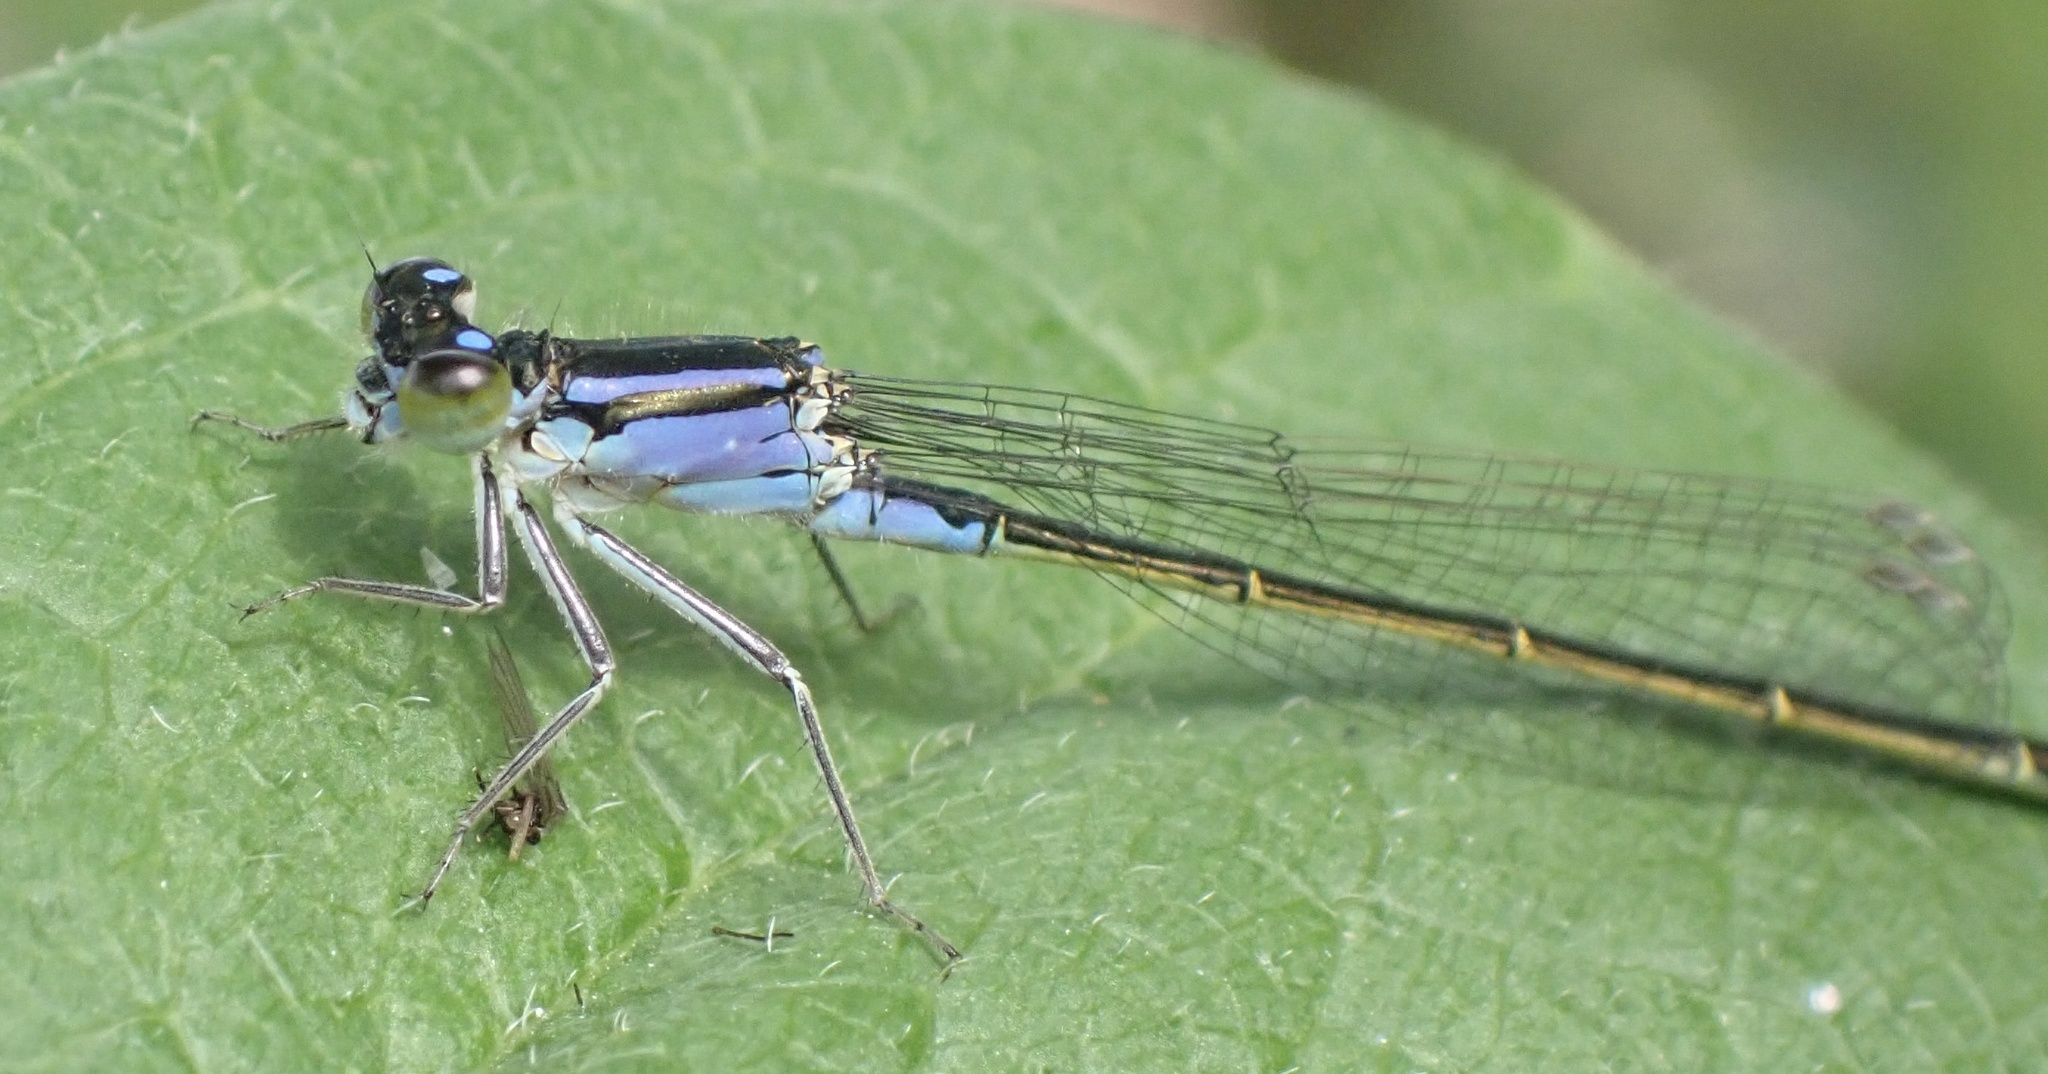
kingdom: Animalia
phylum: Arthropoda
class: Insecta
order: Odonata
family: Coenagrionidae
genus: Ischnura
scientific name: Ischnura elegans
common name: Blue-tailed damselfly
